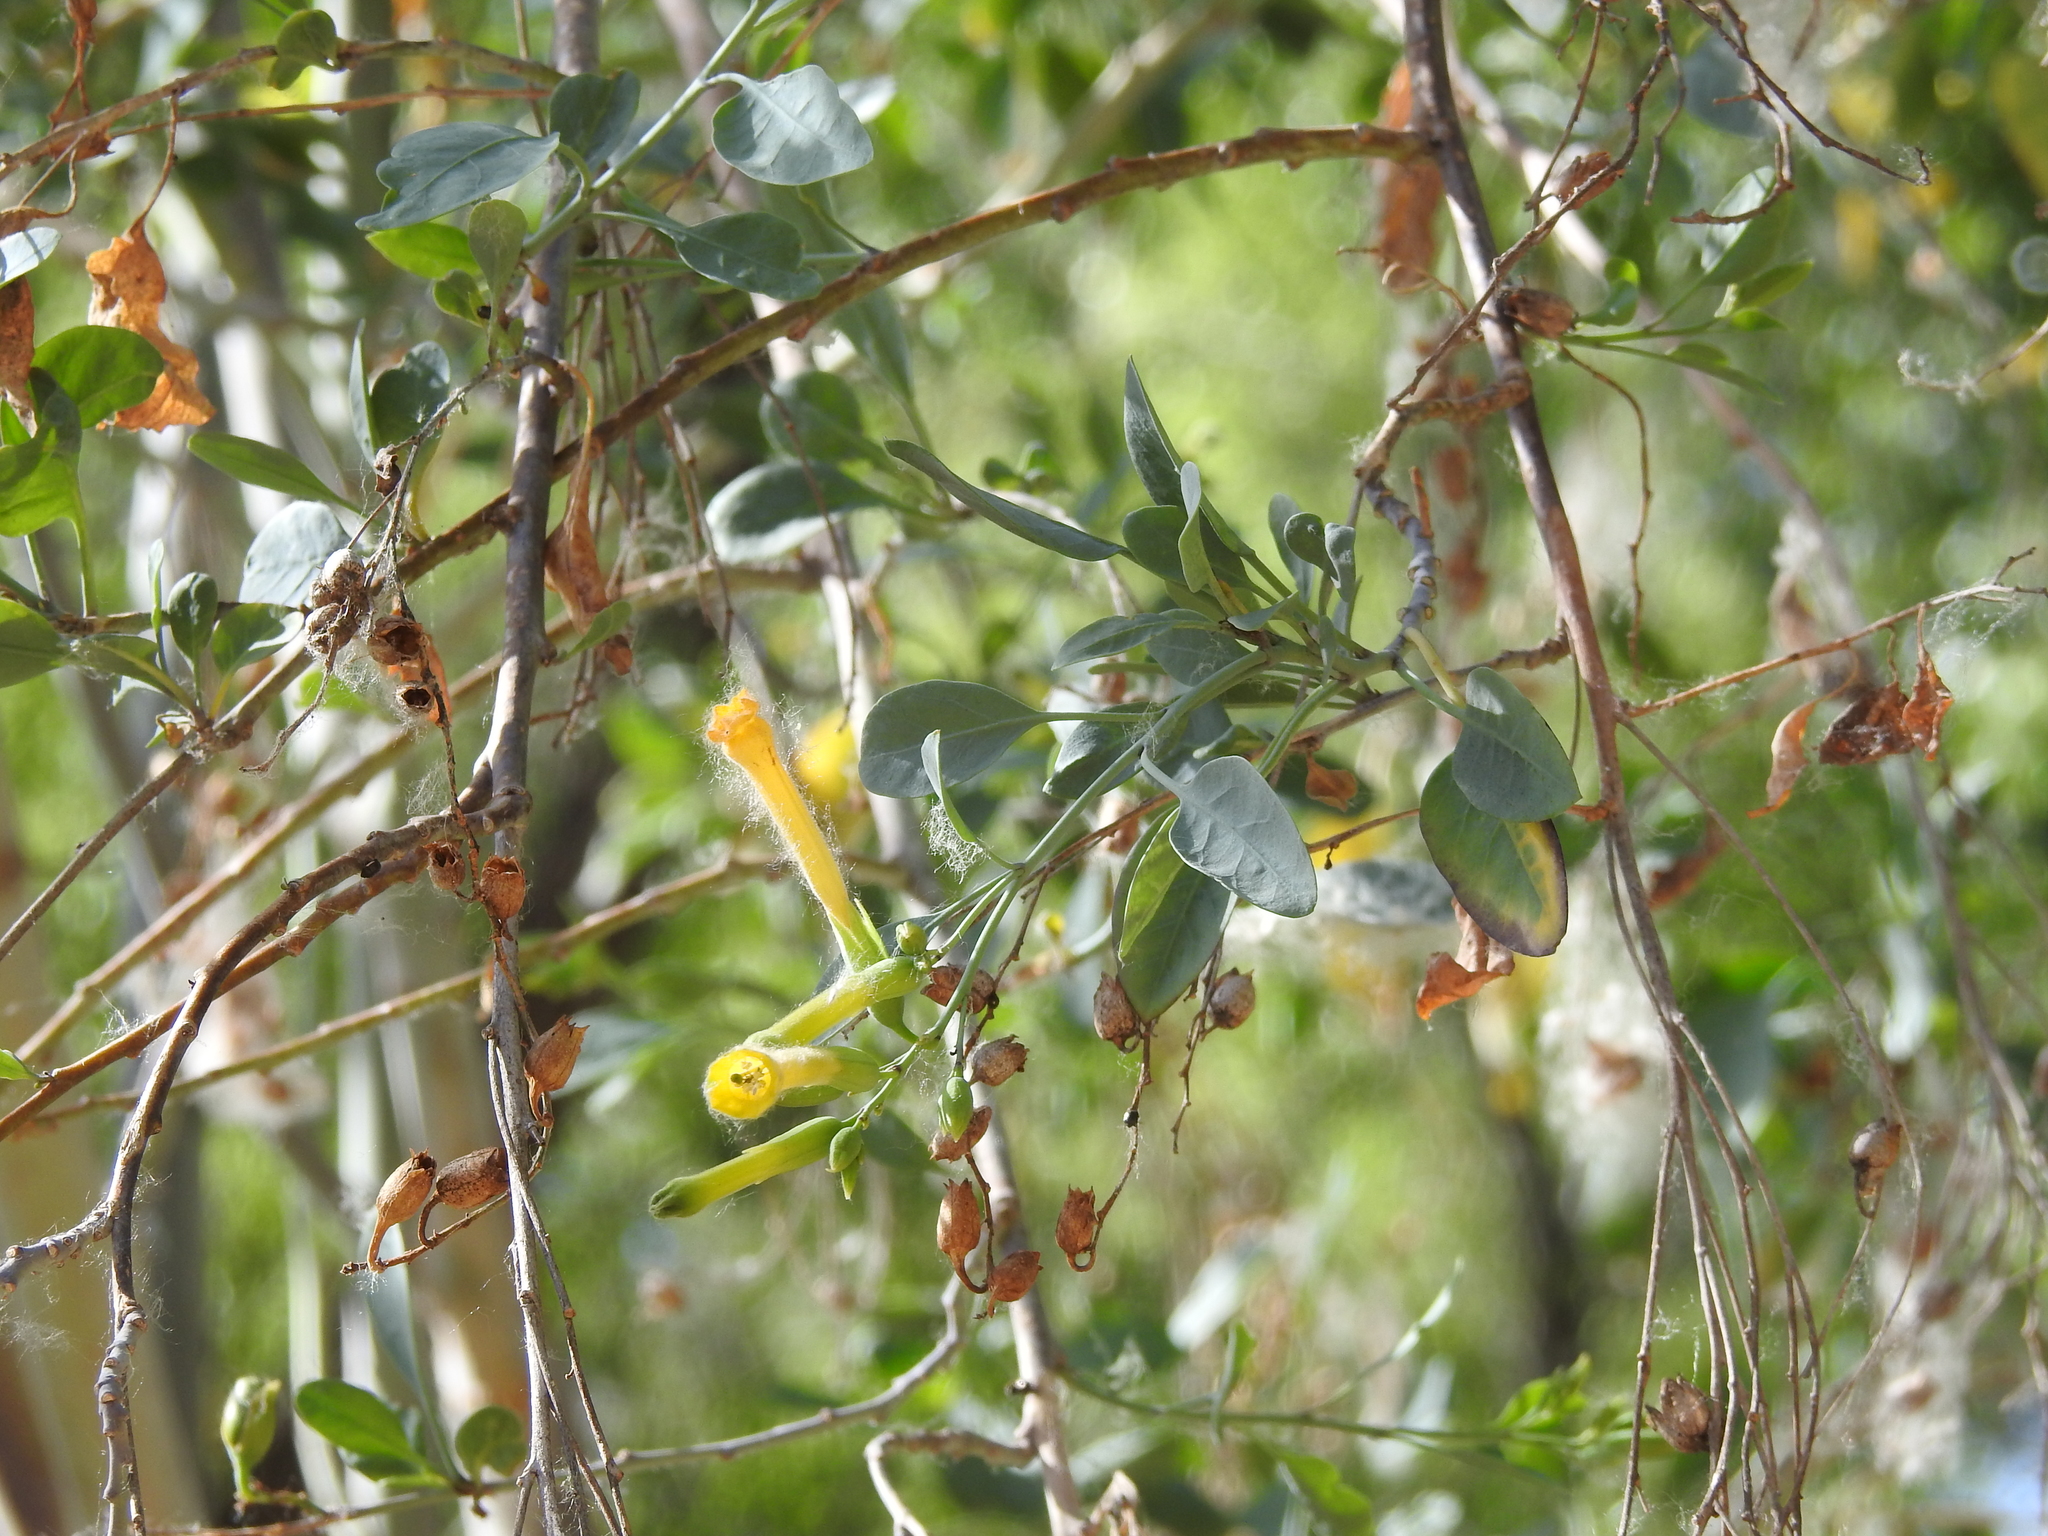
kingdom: Plantae
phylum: Tracheophyta
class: Magnoliopsida
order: Solanales
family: Solanaceae
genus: Nicotiana
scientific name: Nicotiana glauca
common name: Tree tobacco
